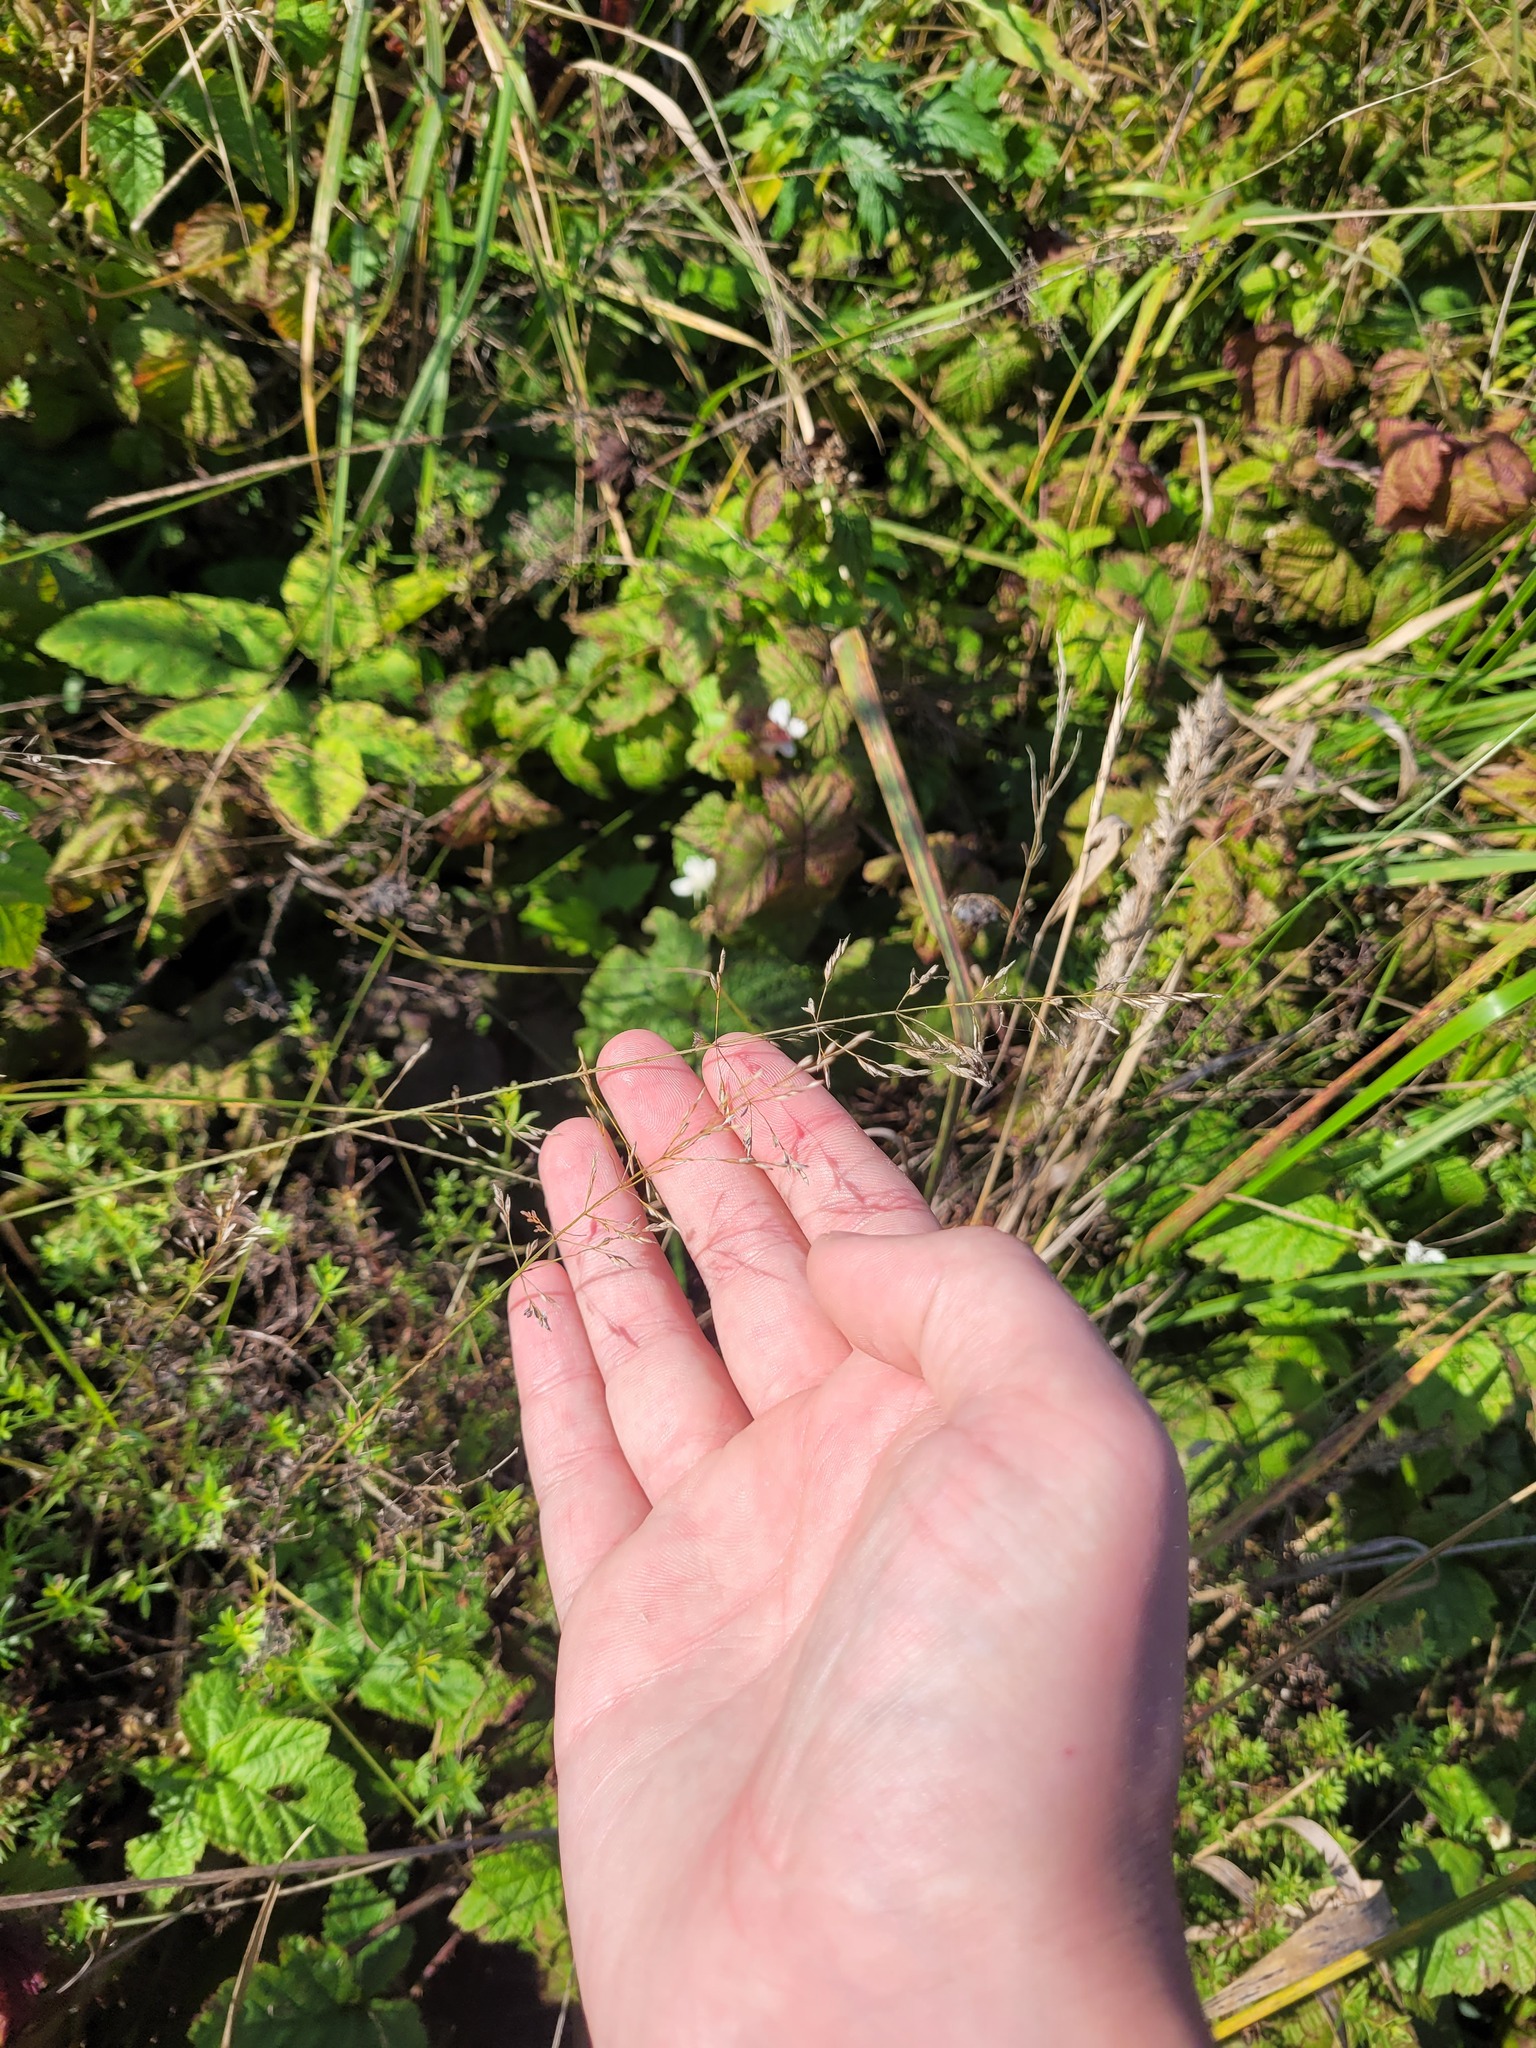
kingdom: Plantae
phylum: Tracheophyta
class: Liliopsida
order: Poales
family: Poaceae
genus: Poa
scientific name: Poa palustris
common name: Swamp meadow-grass
